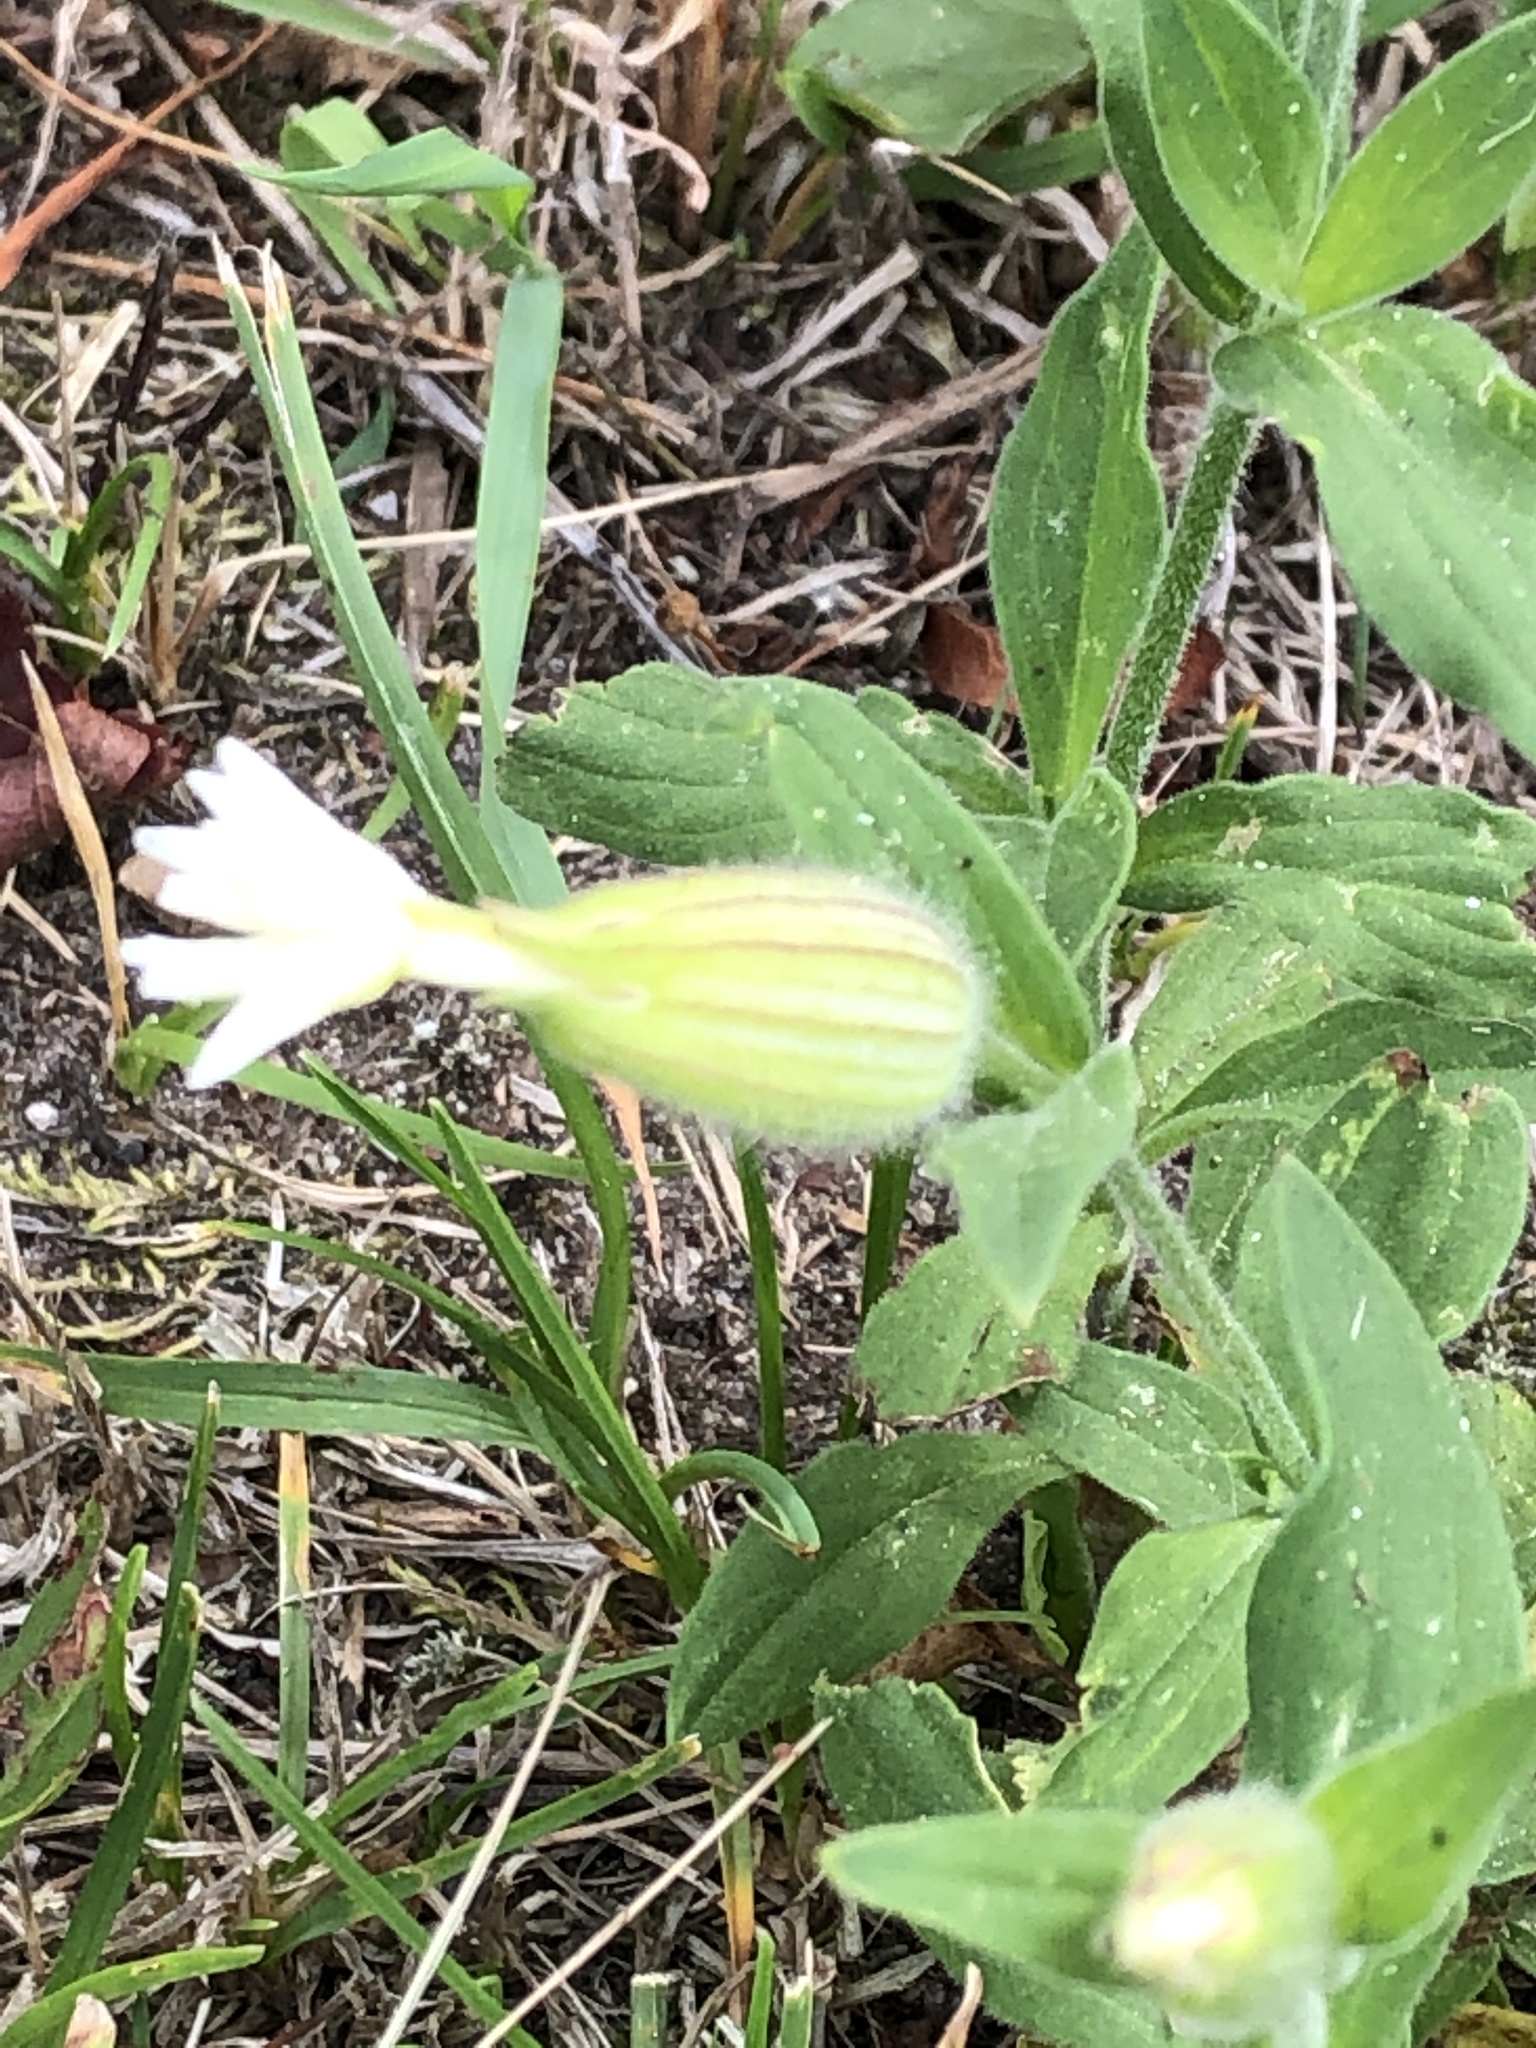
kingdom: Plantae
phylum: Tracheophyta
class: Magnoliopsida
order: Caryophyllales
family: Caryophyllaceae
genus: Silene
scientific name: Silene latifolia
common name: White campion
